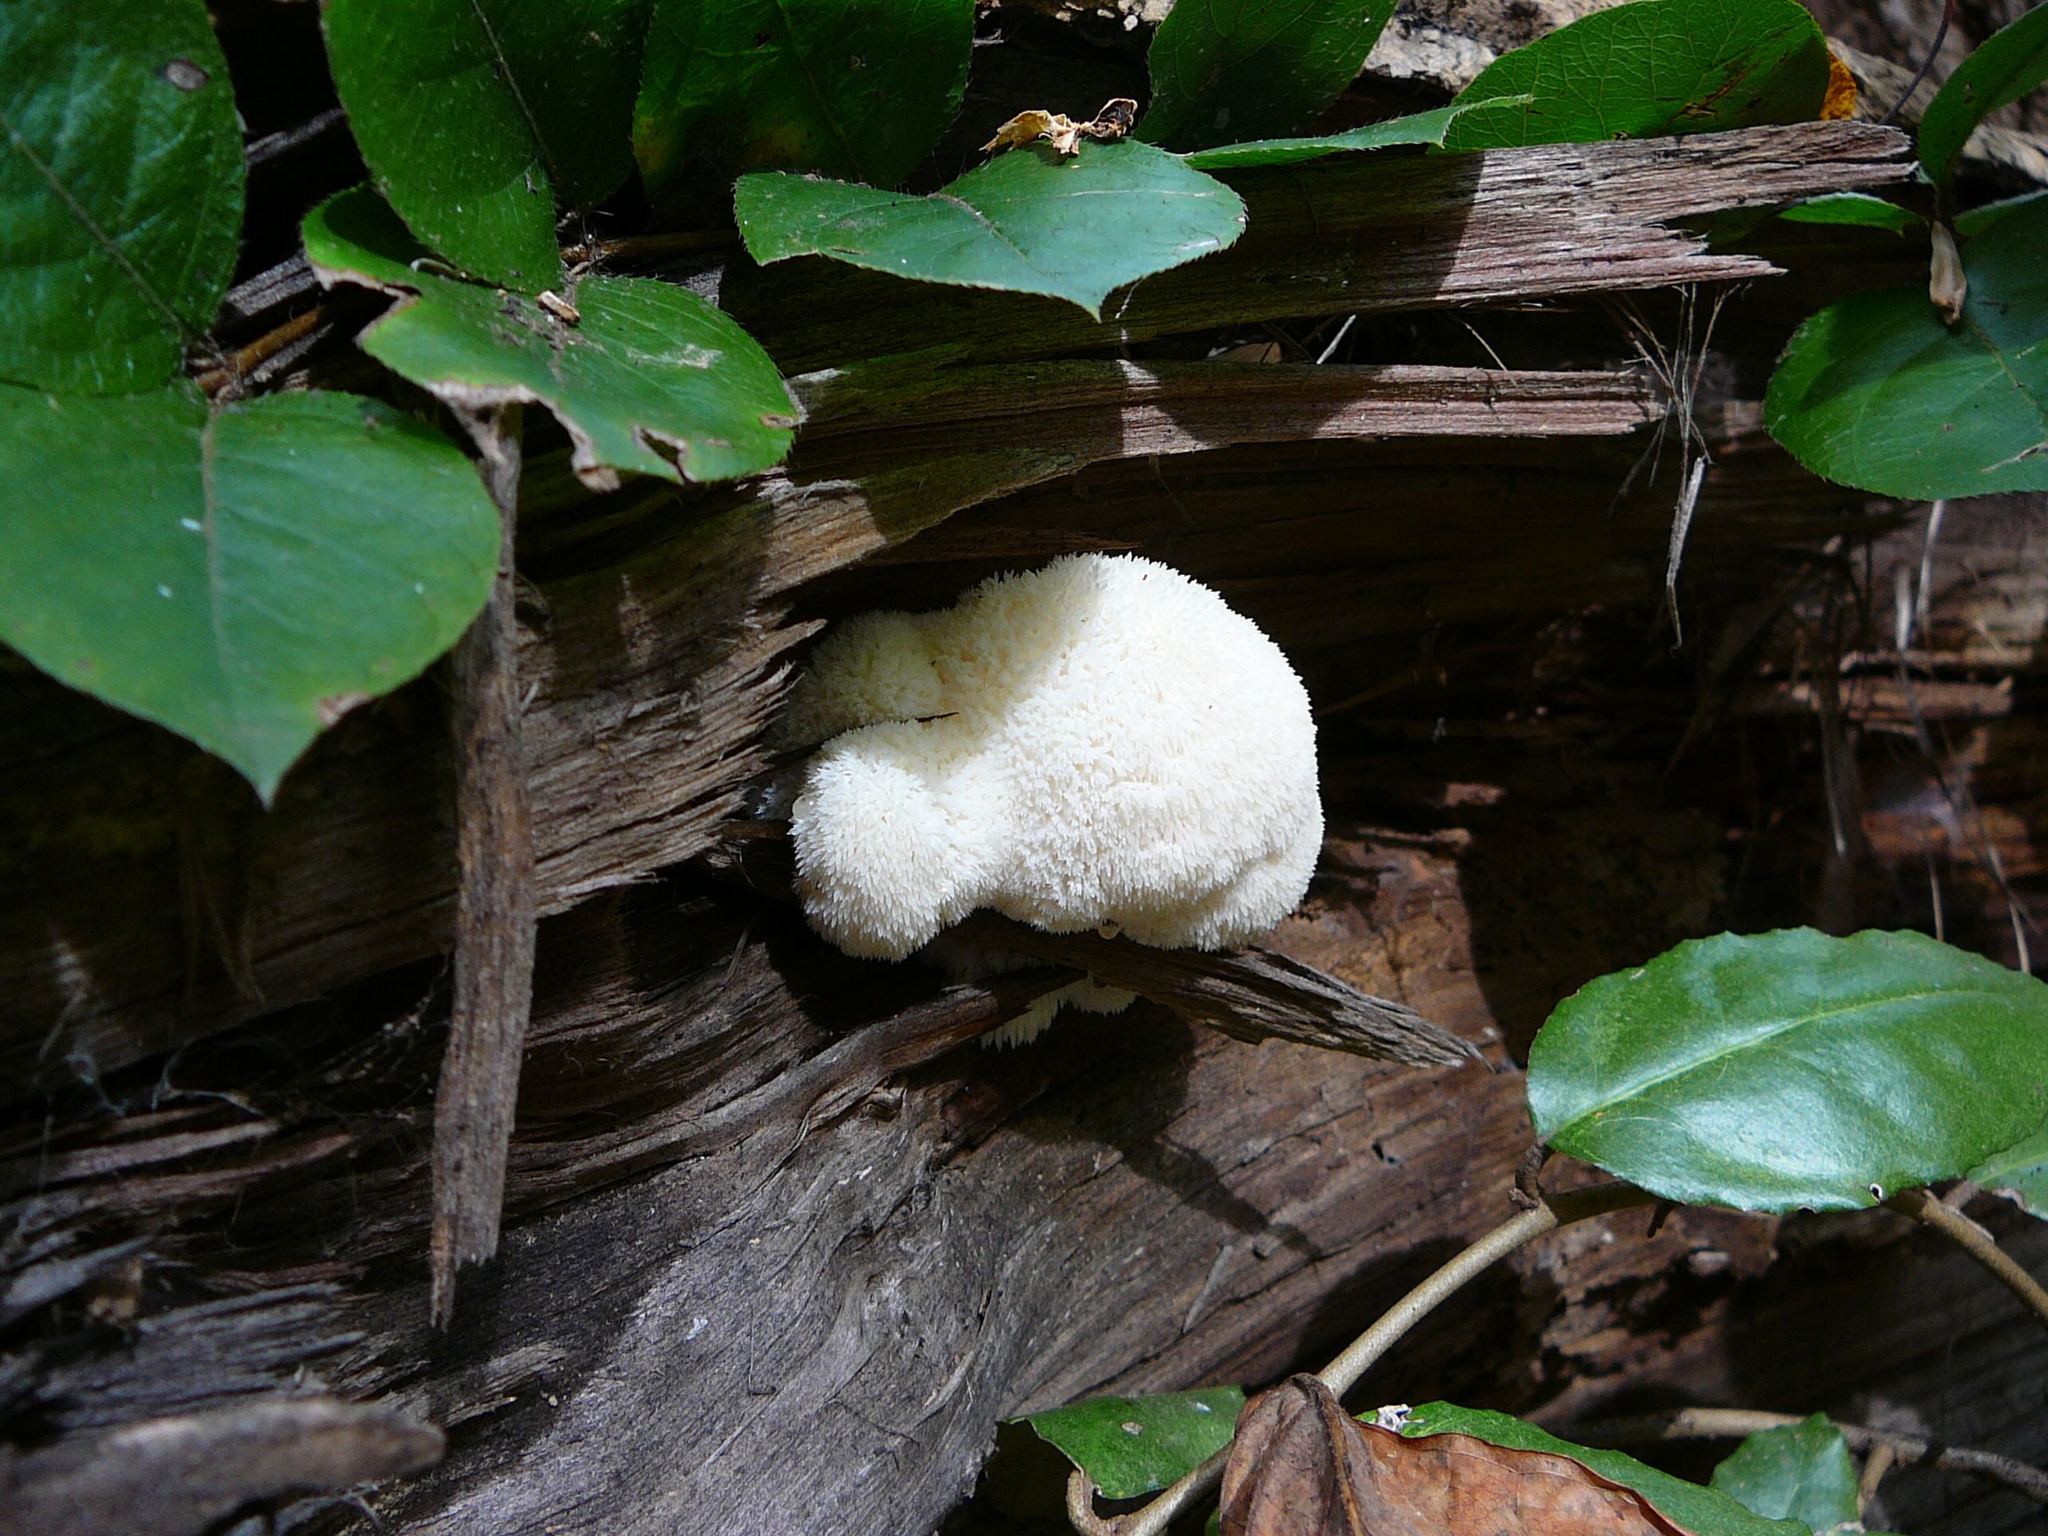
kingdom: Fungi
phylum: Basidiomycota
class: Agaricomycetes
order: Russulales
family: Hericiaceae
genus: Hericium
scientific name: Hericium erinaceus
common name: Bearded tooth
